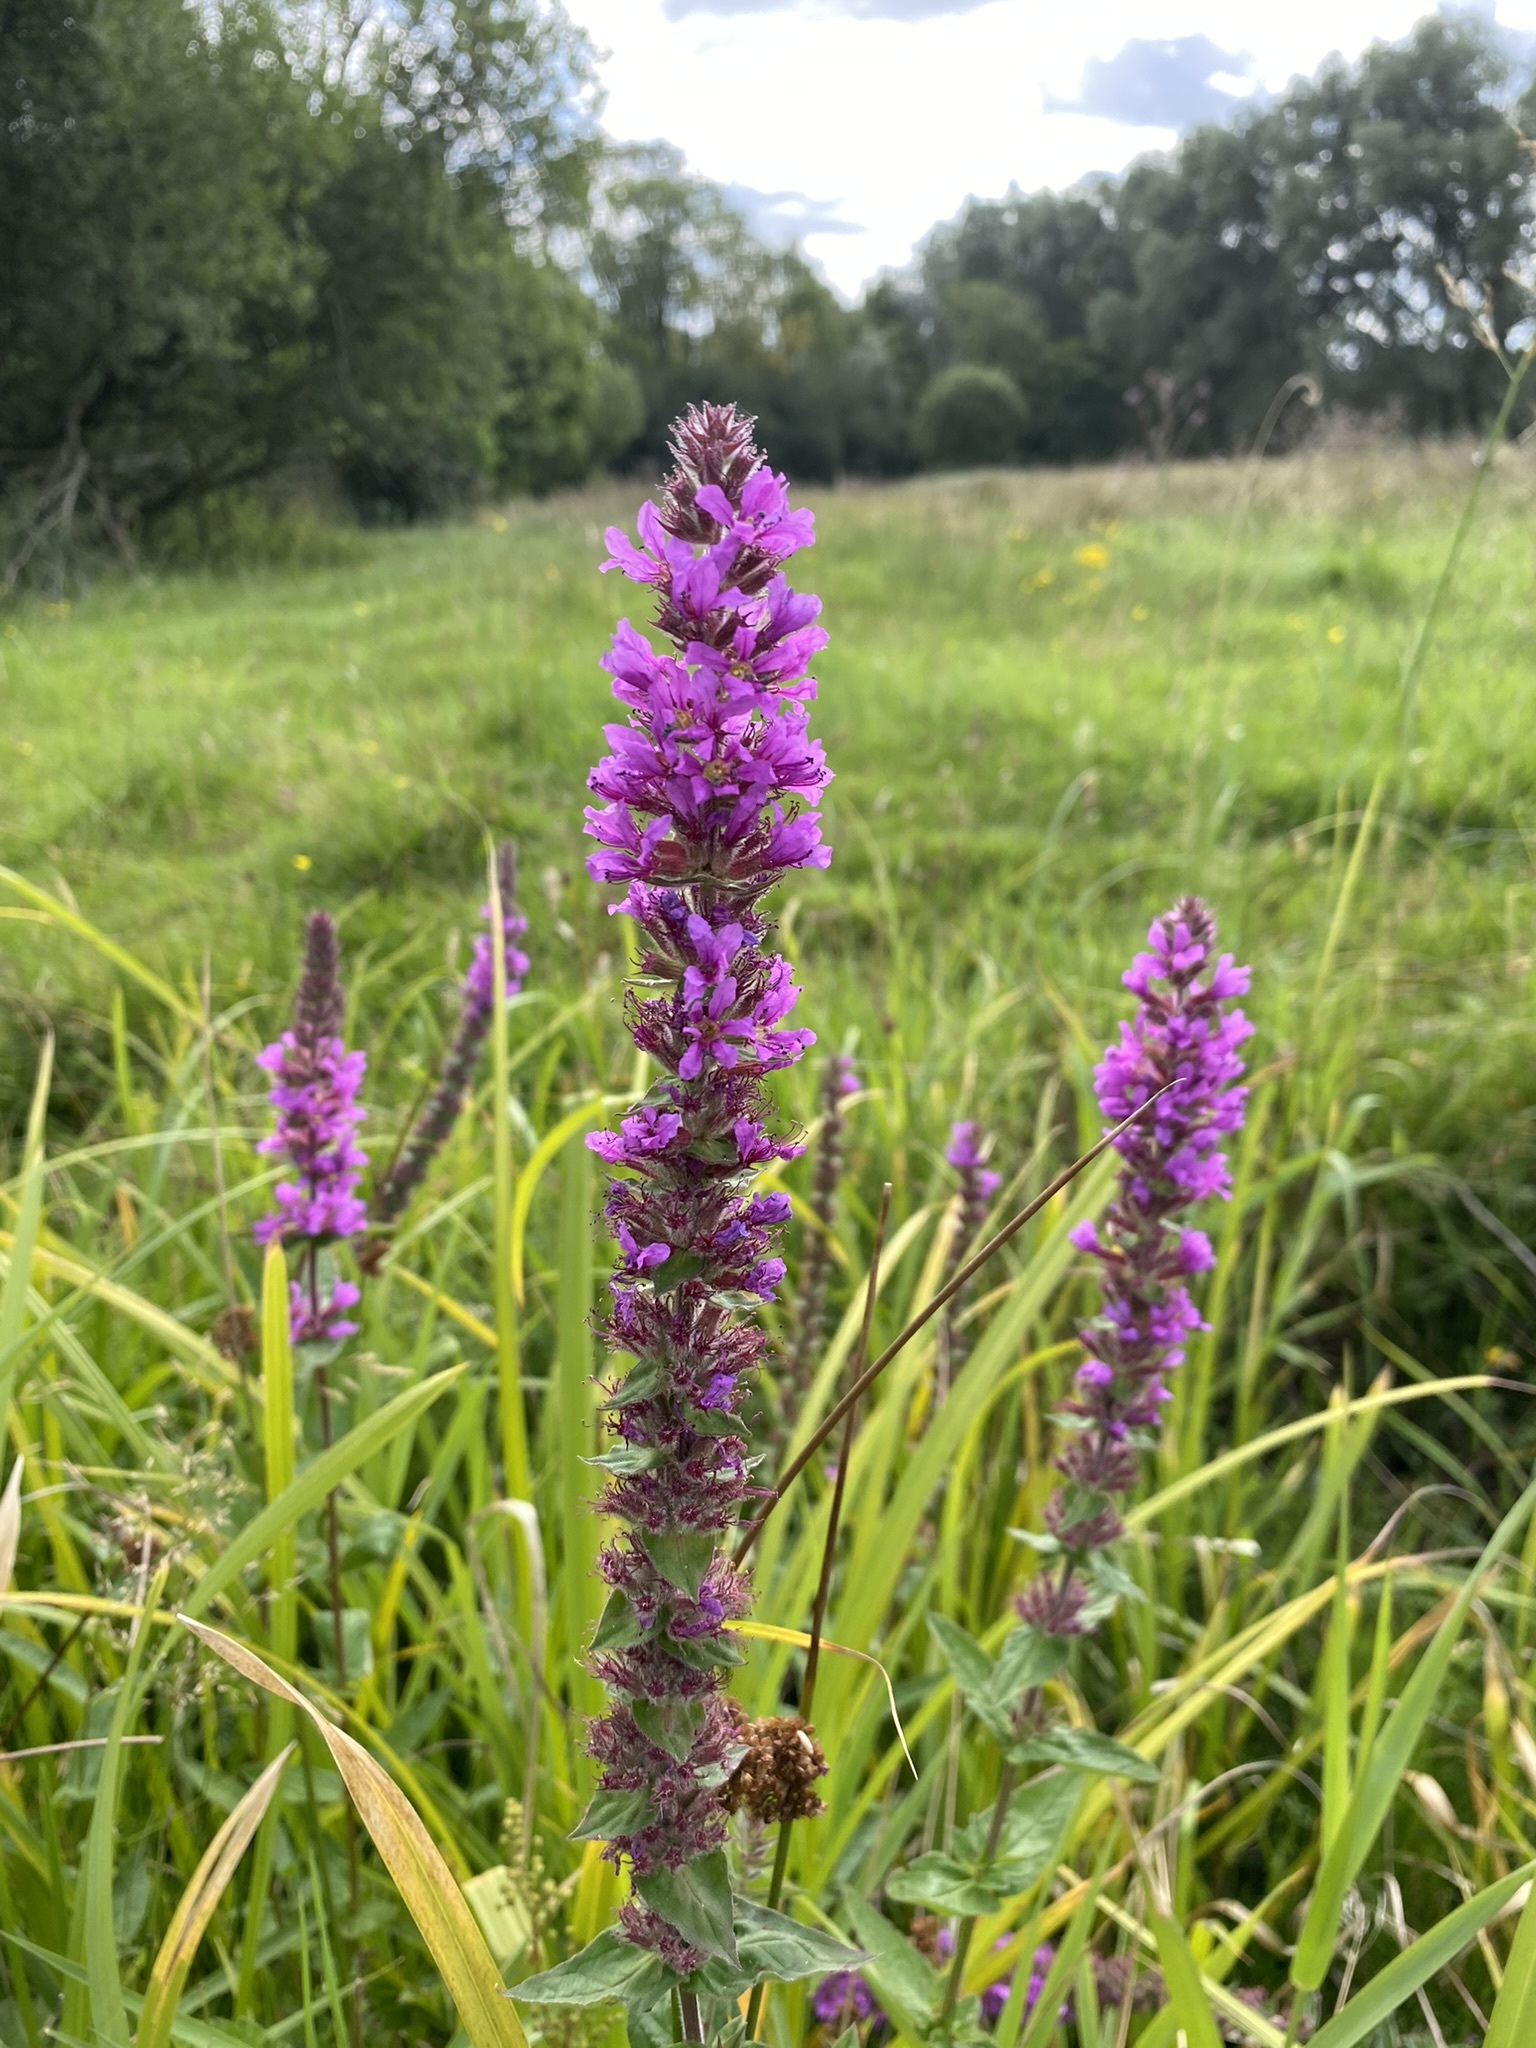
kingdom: Plantae
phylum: Tracheophyta
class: Magnoliopsida
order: Myrtales
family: Lythraceae
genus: Lythrum
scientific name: Lythrum salicaria
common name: Purple loosestrife
